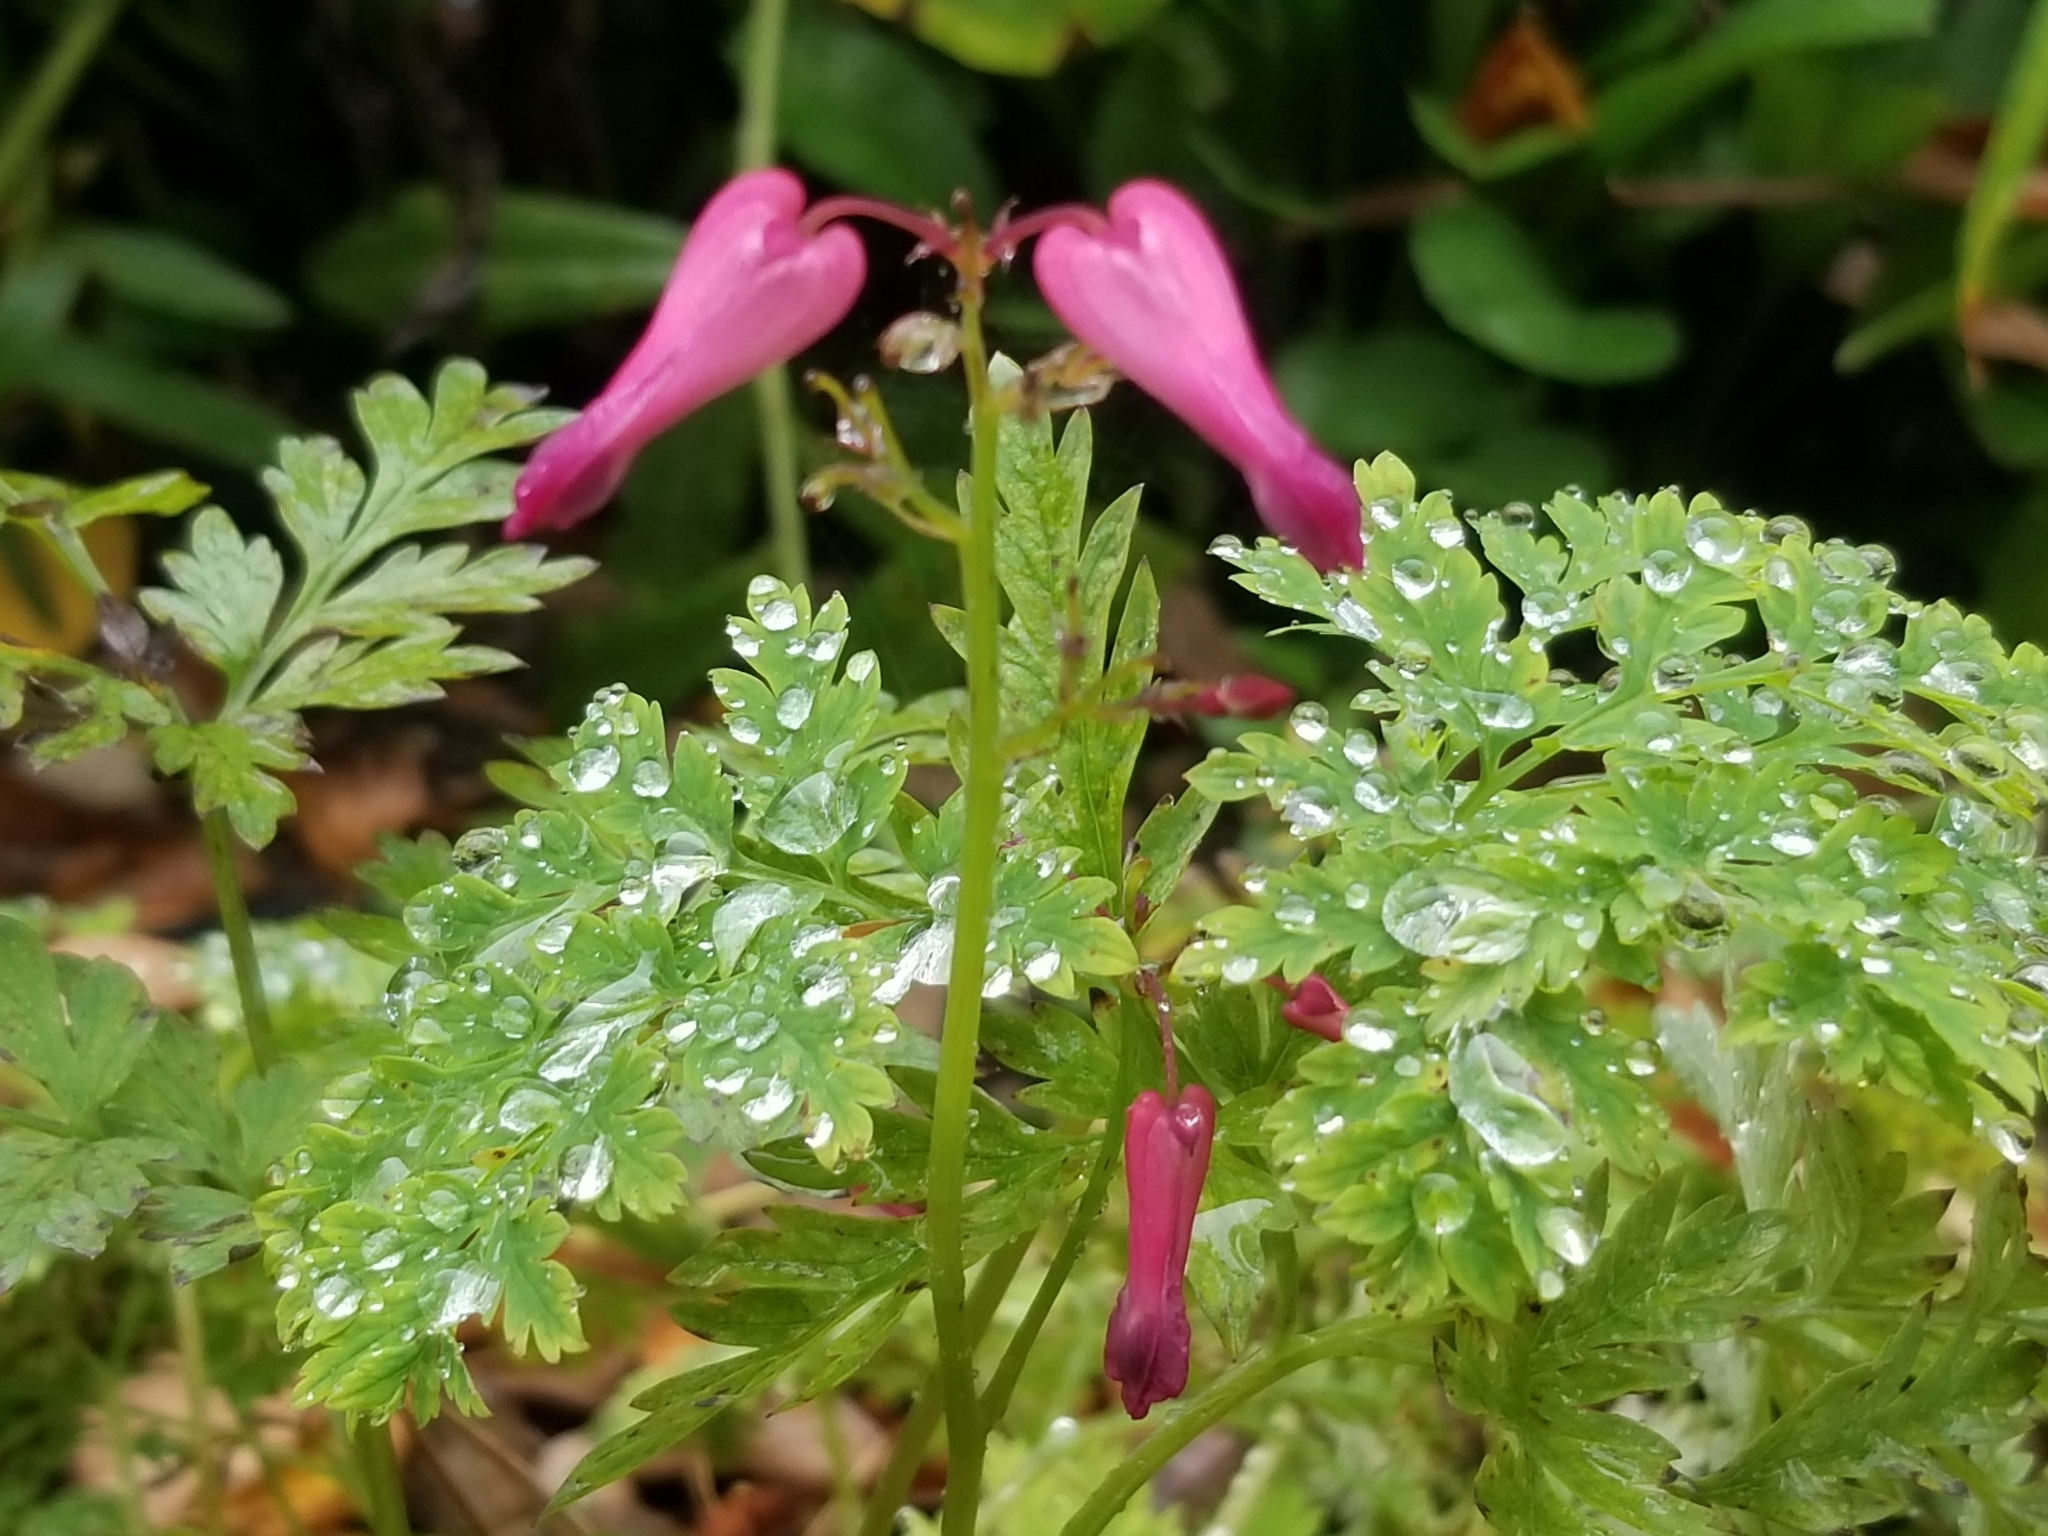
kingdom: Plantae
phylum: Tracheophyta
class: Magnoliopsida
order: Ranunculales
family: Papaveraceae
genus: Dicentra
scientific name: Dicentra eximia
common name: Turkey-corn
